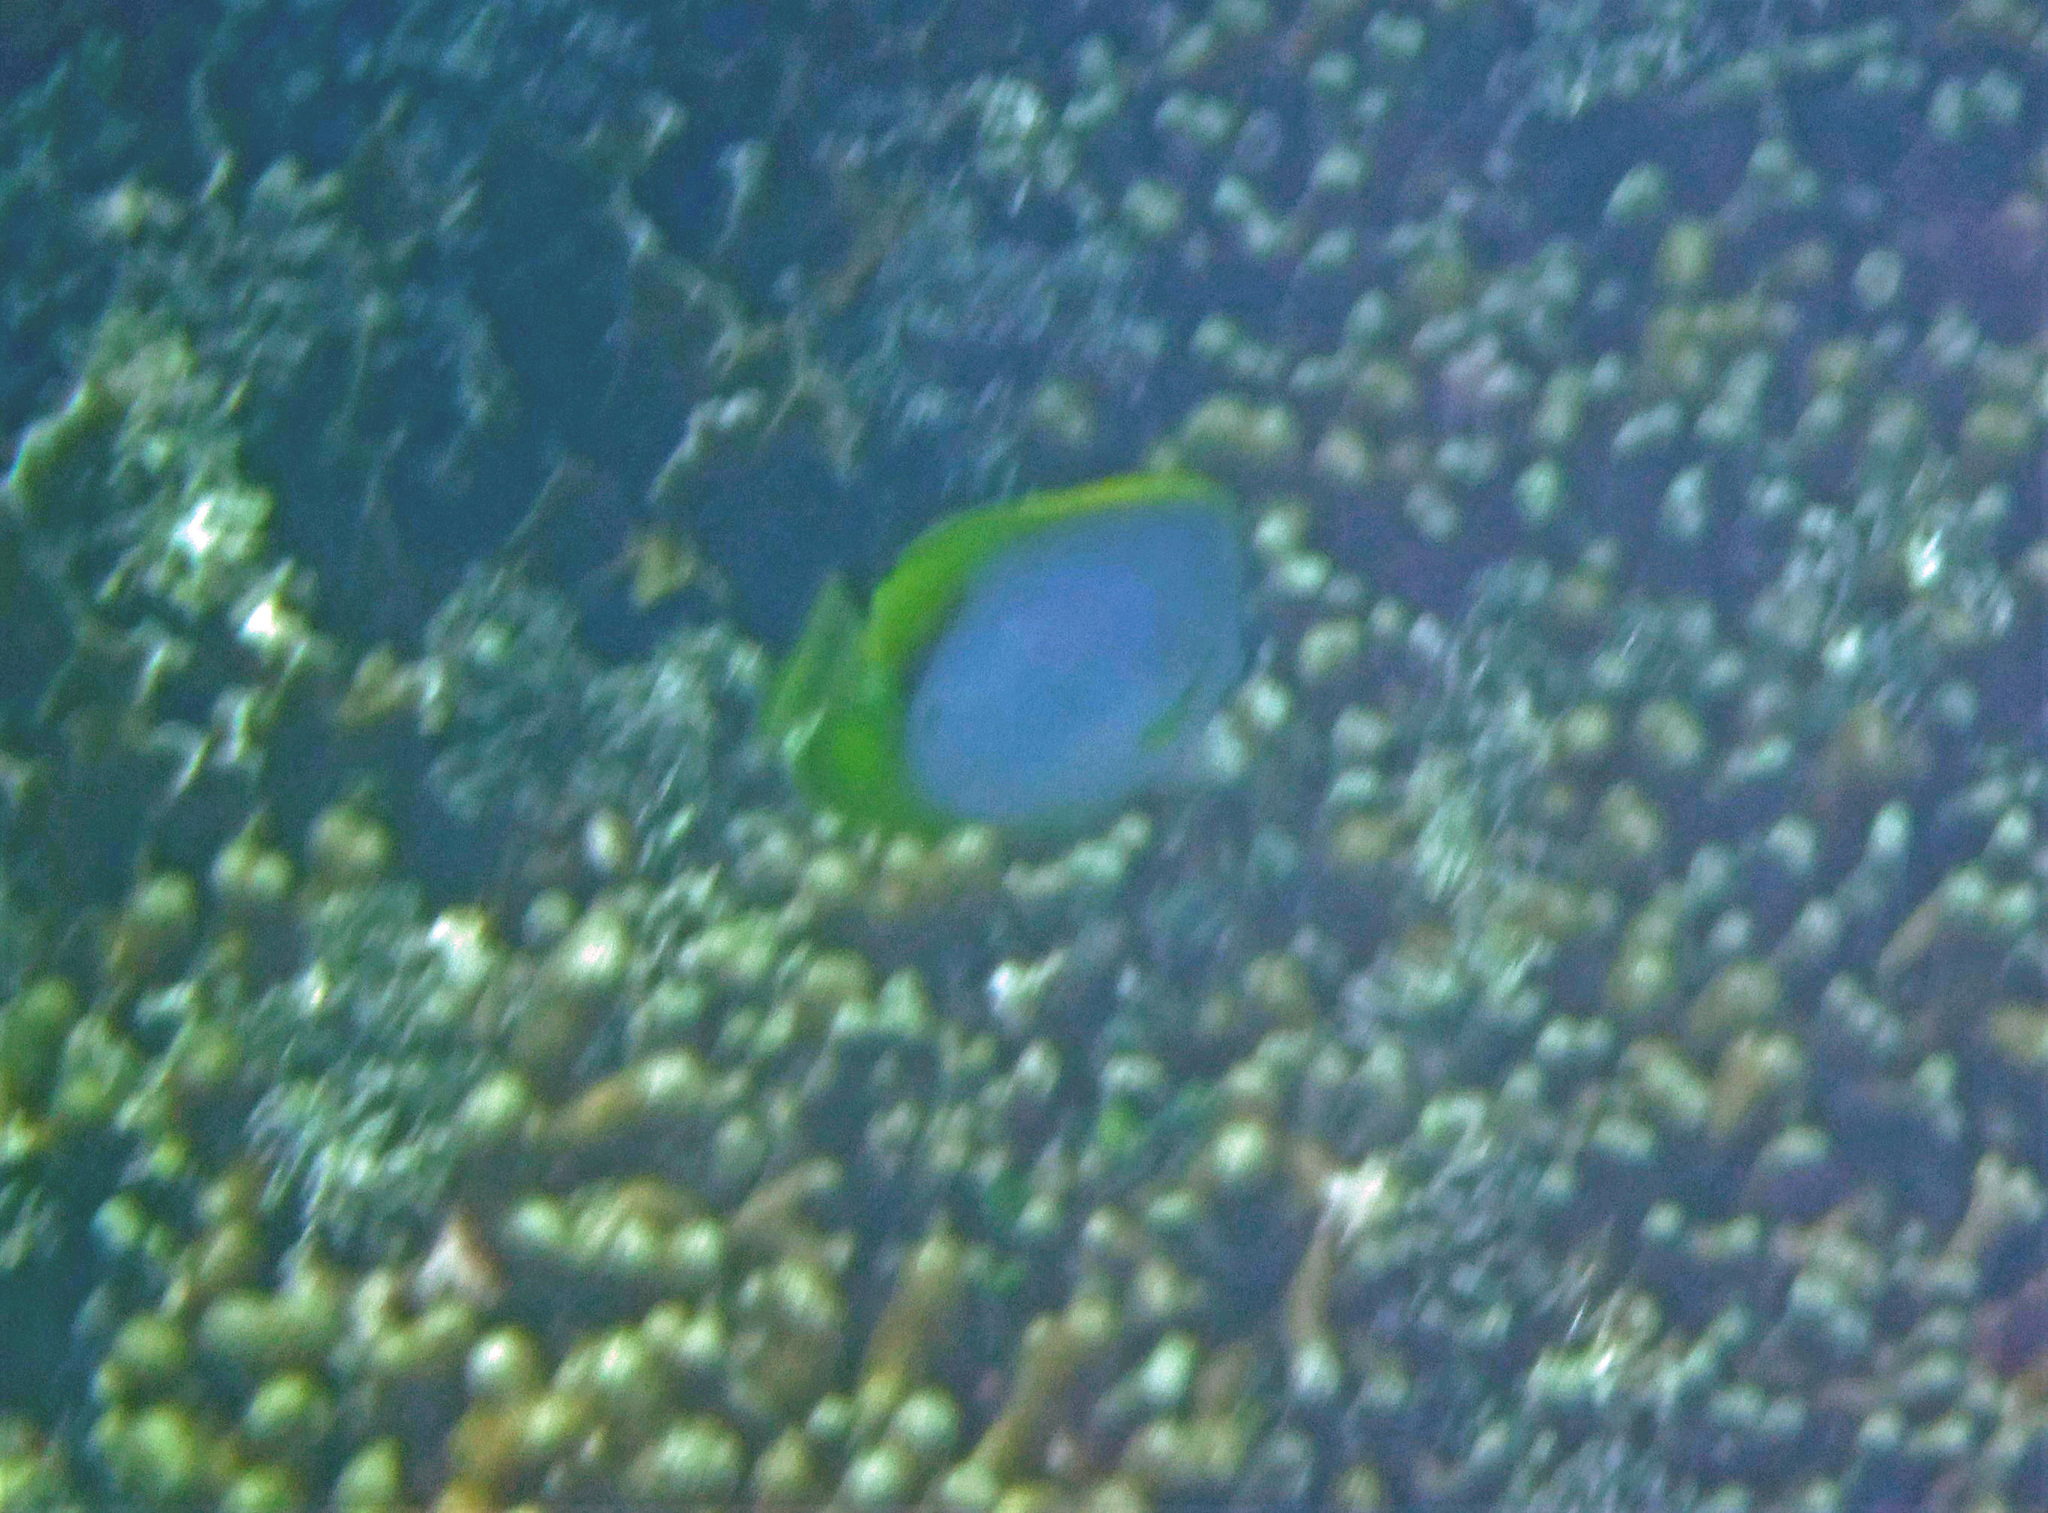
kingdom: Animalia
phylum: Chordata
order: Perciformes
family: Chaetodontidae
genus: Chaetodon
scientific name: Chaetodon ocellatus
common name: Spotfin butterflyfish
